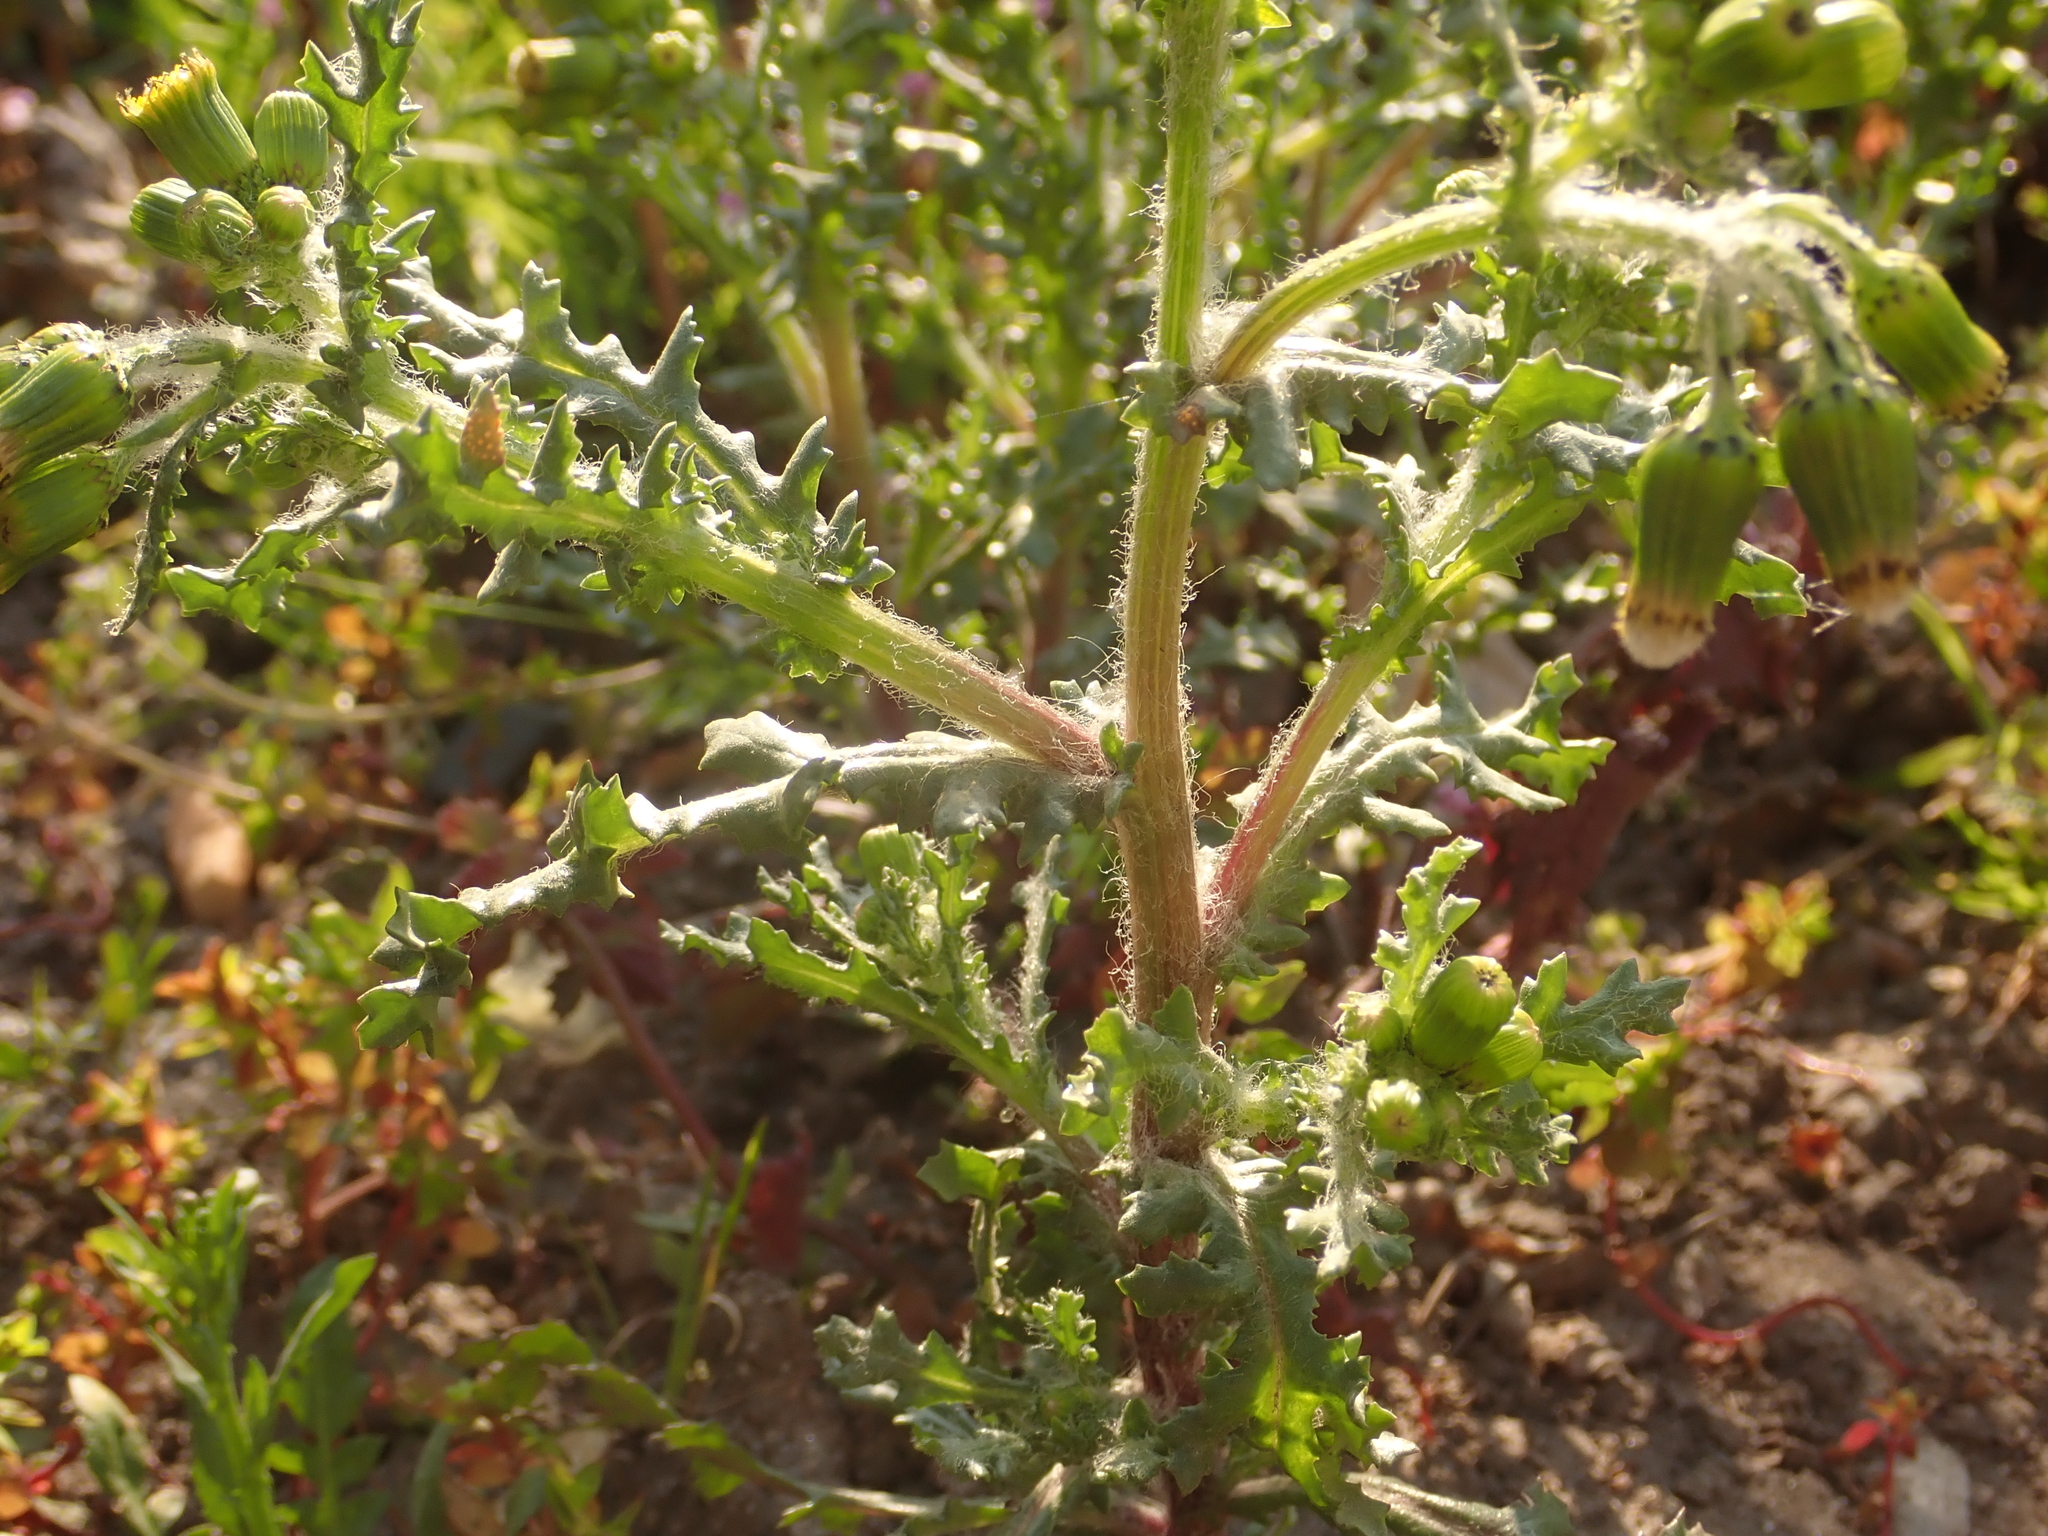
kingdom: Plantae
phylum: Tracheophyta
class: Magnoliopsida
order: Asterales
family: Asteraceae
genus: Senecio
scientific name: Senecio vulgaris
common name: Old-man-in-the-spring
